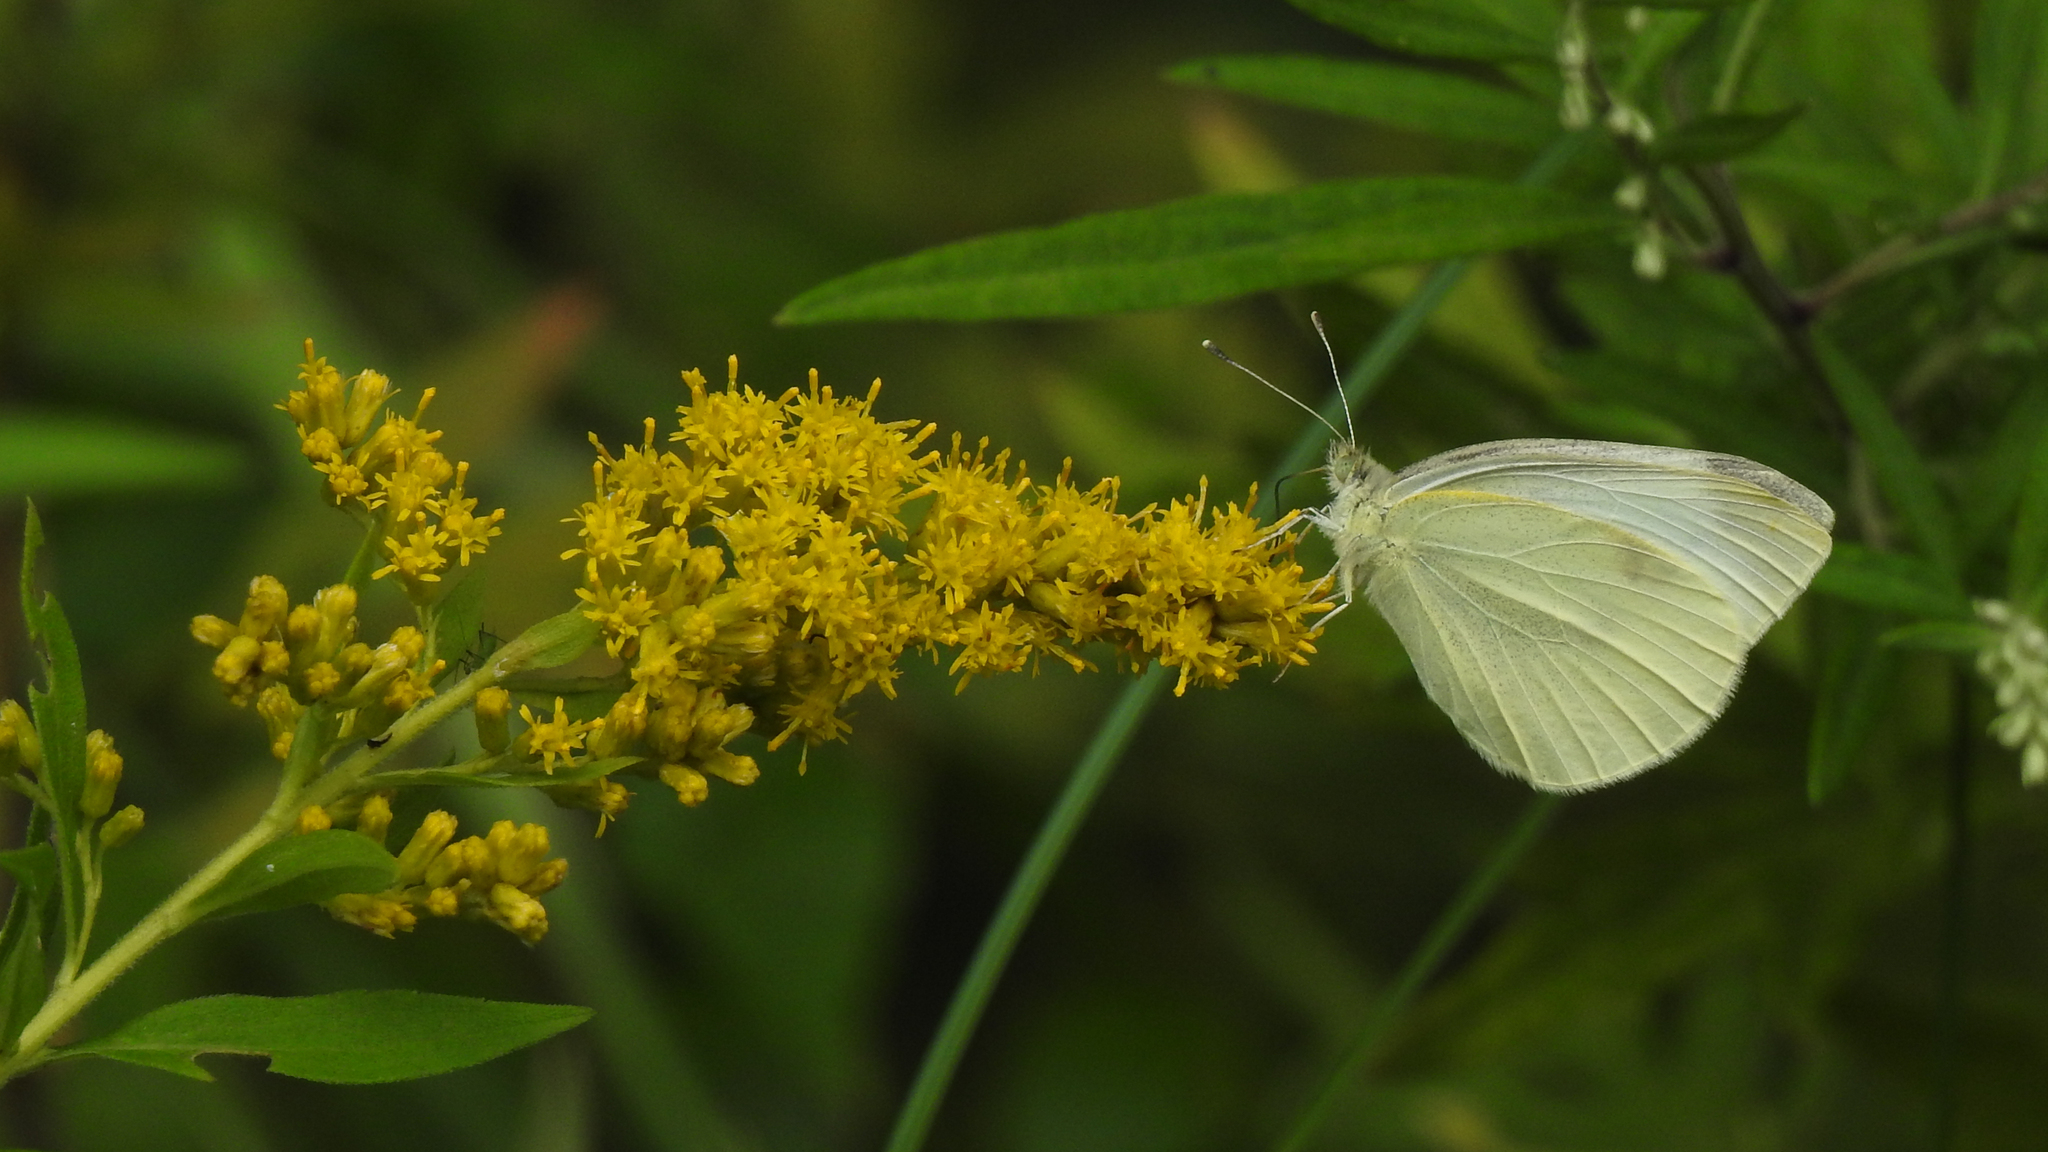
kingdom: Animalia
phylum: Arthropoda
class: Insecta
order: Lepidoptera
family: Pieridae
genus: Pieris
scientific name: Pieris rapae
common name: Small white
